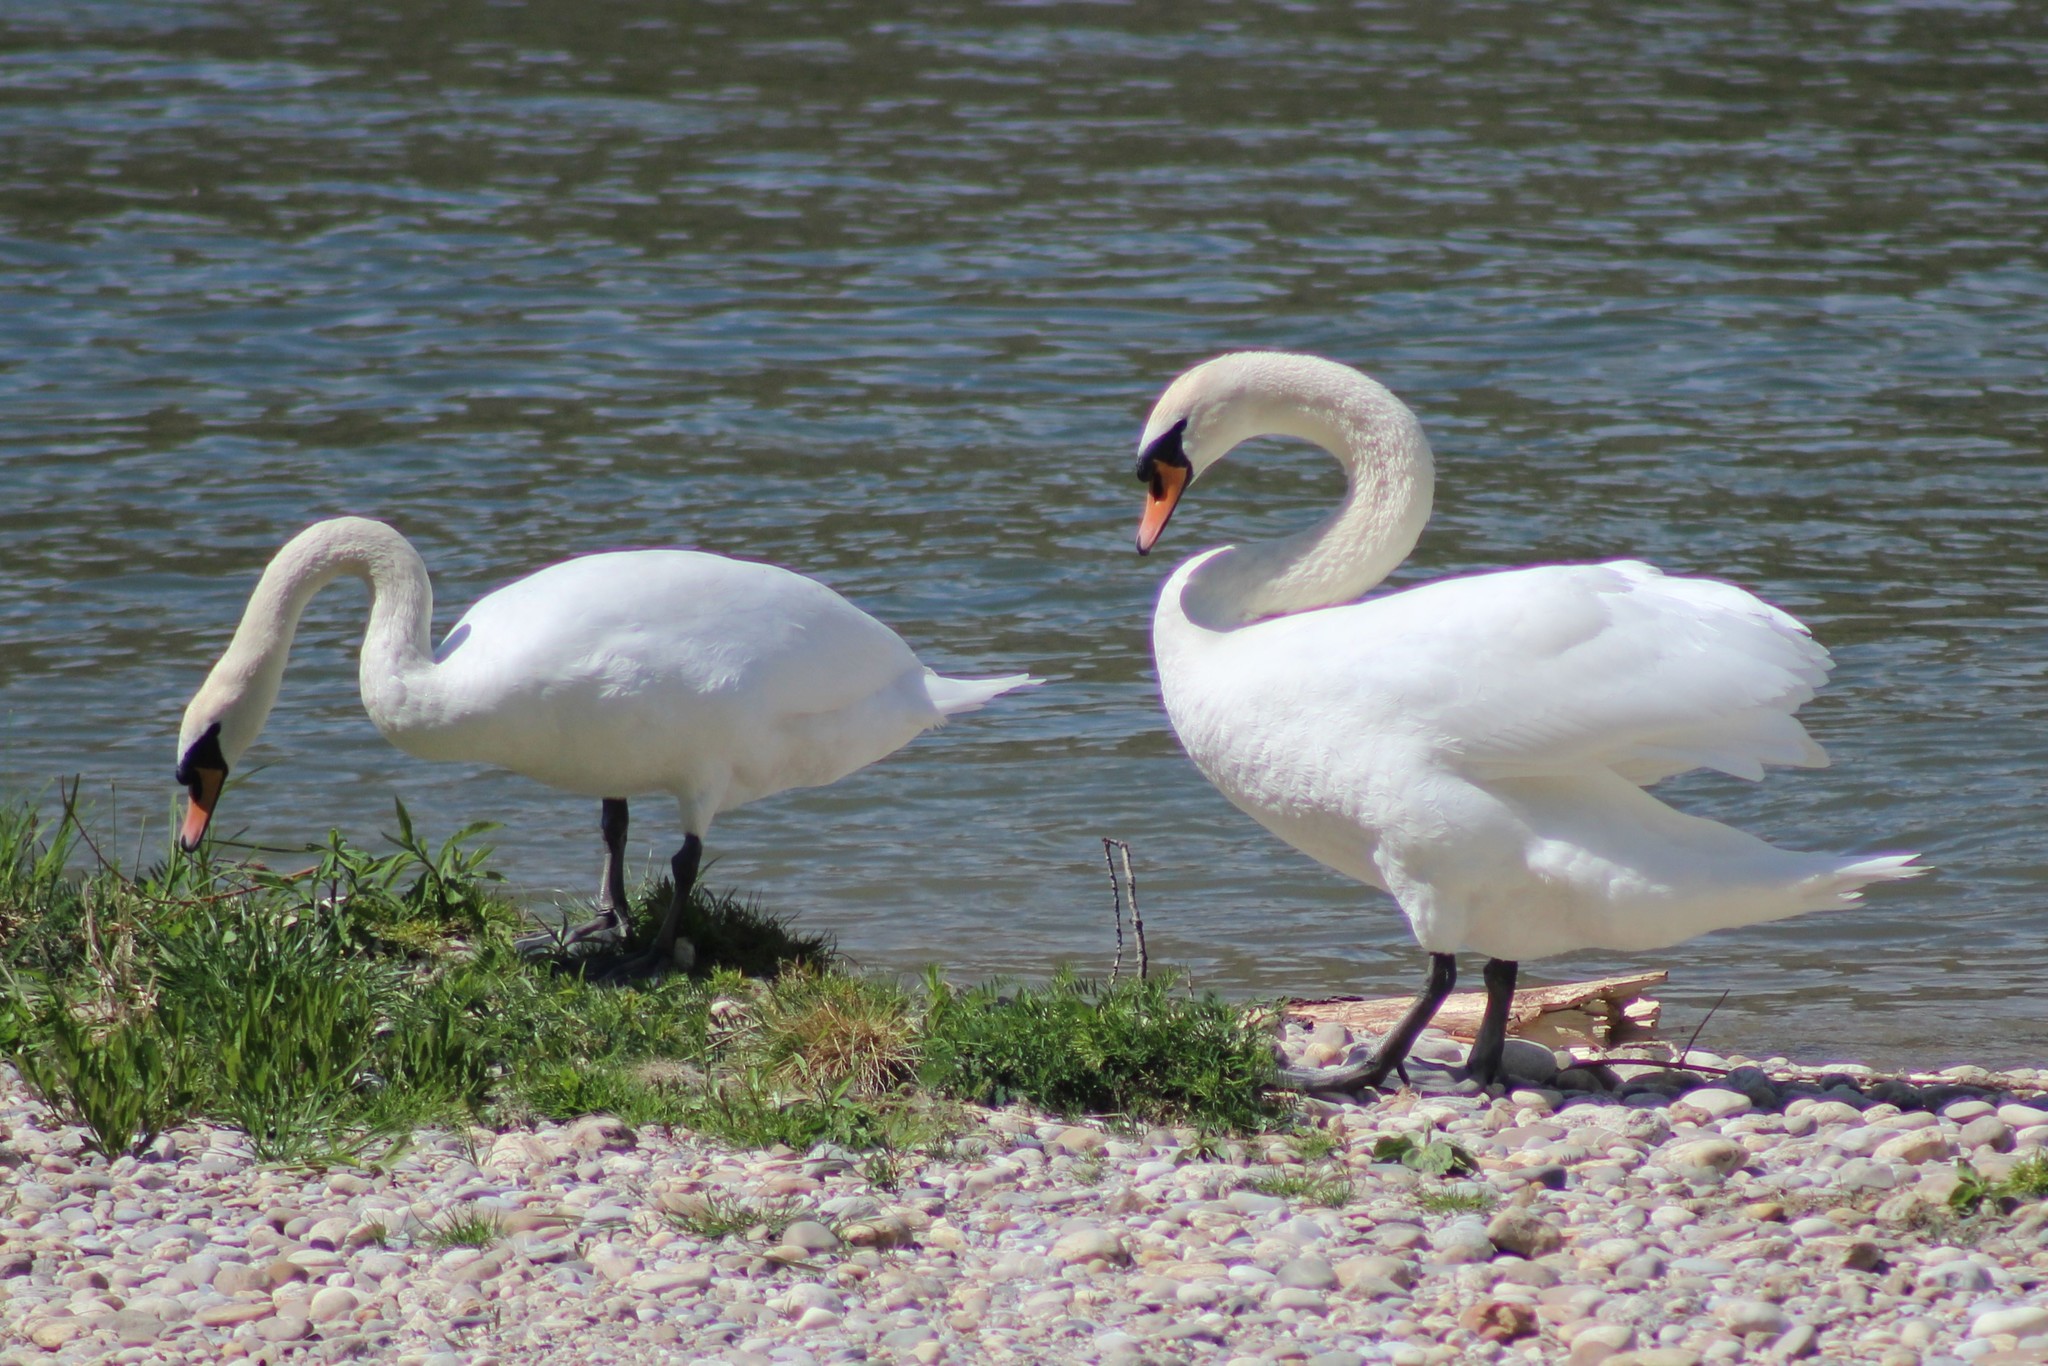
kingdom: Animalia
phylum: Chordata
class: Aves
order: Anseriformes
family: Anatidae
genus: Cygnus
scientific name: Cygnus olor
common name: Mute swan
